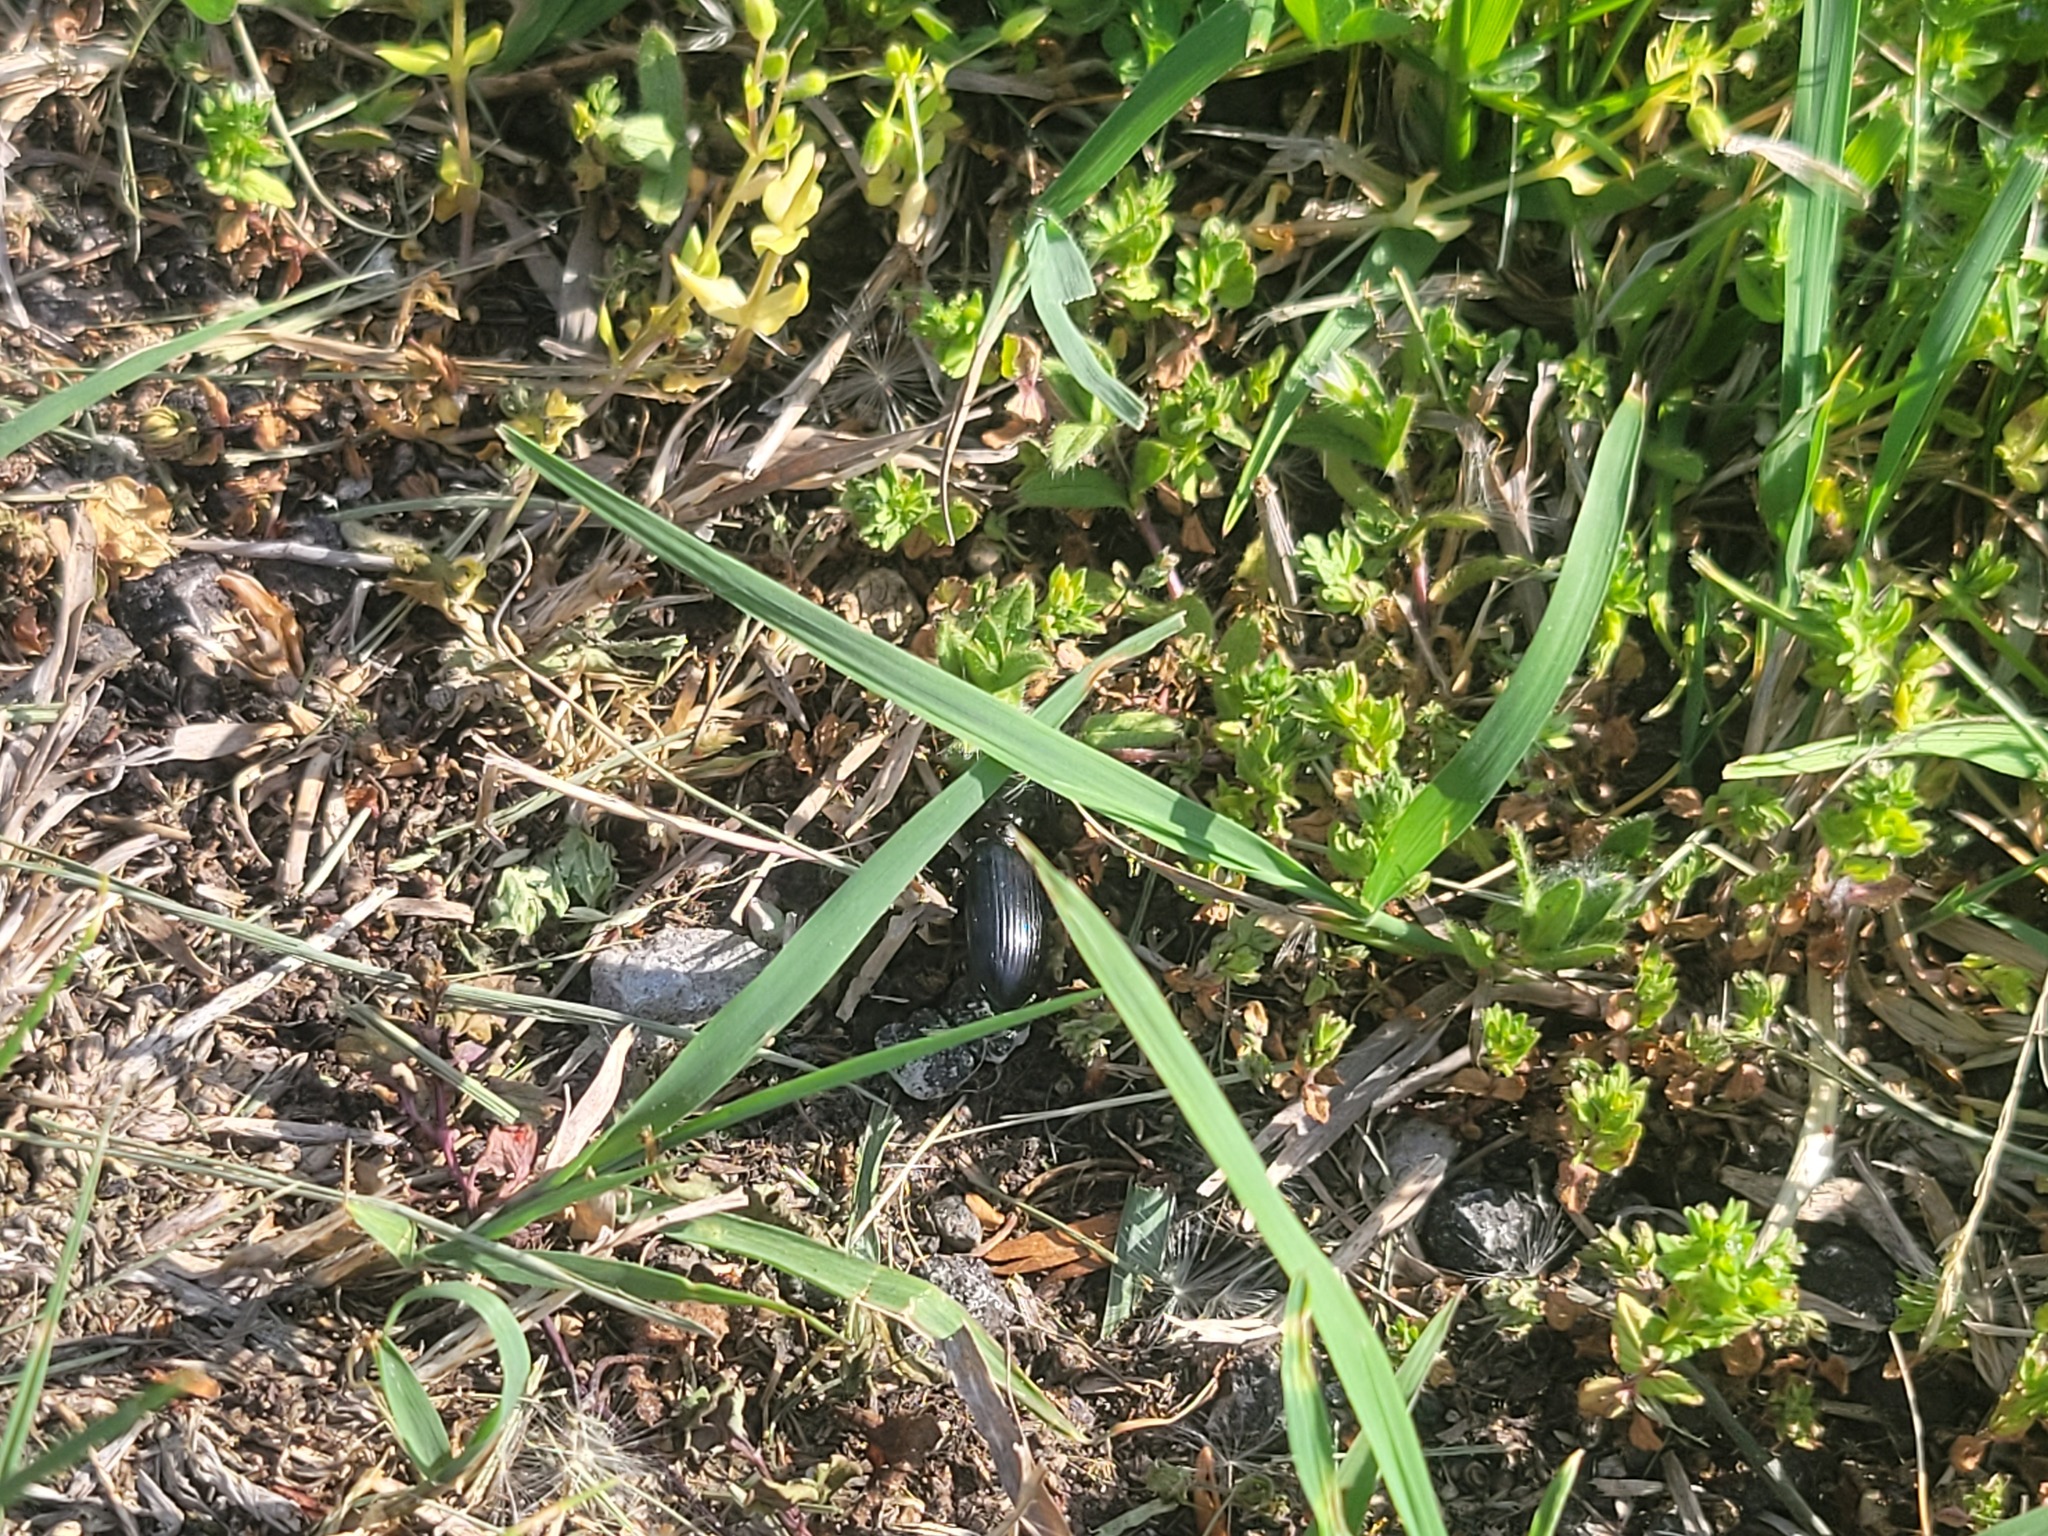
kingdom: Animalia
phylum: Arthropoda
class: Insecta
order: Coleoptera
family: Carabidae
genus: Scarites
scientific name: Scarites subterraneus
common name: Big-headed ground beetle
